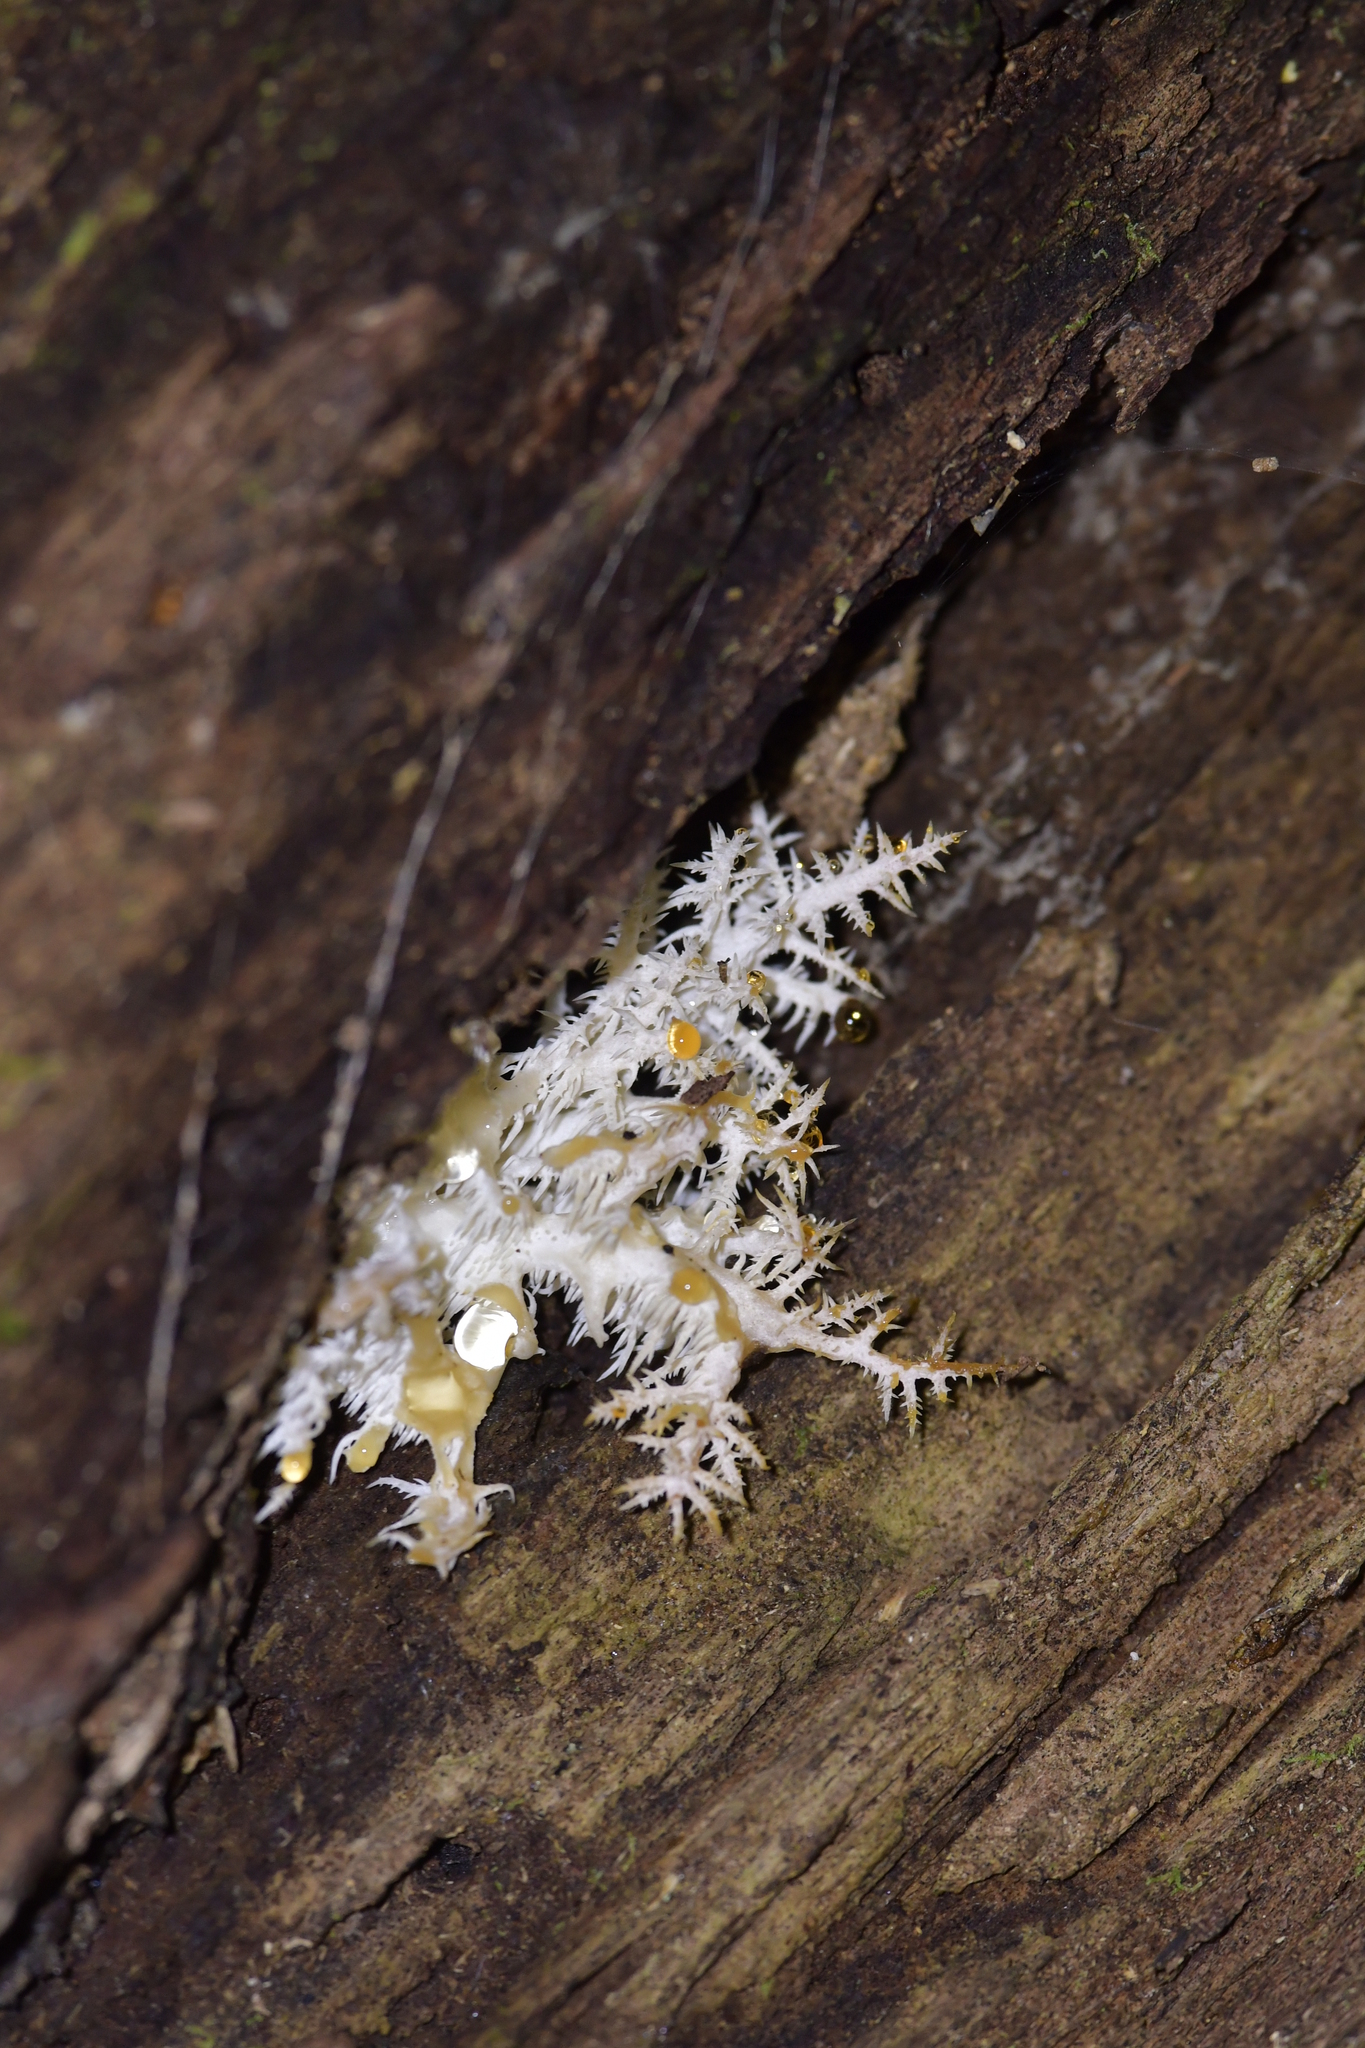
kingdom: Fungi
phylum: Basidiomycota
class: Agaricomycetes
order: Russulales
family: Hericiaceae
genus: Hericium
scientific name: Hericium novae-zealandiae
